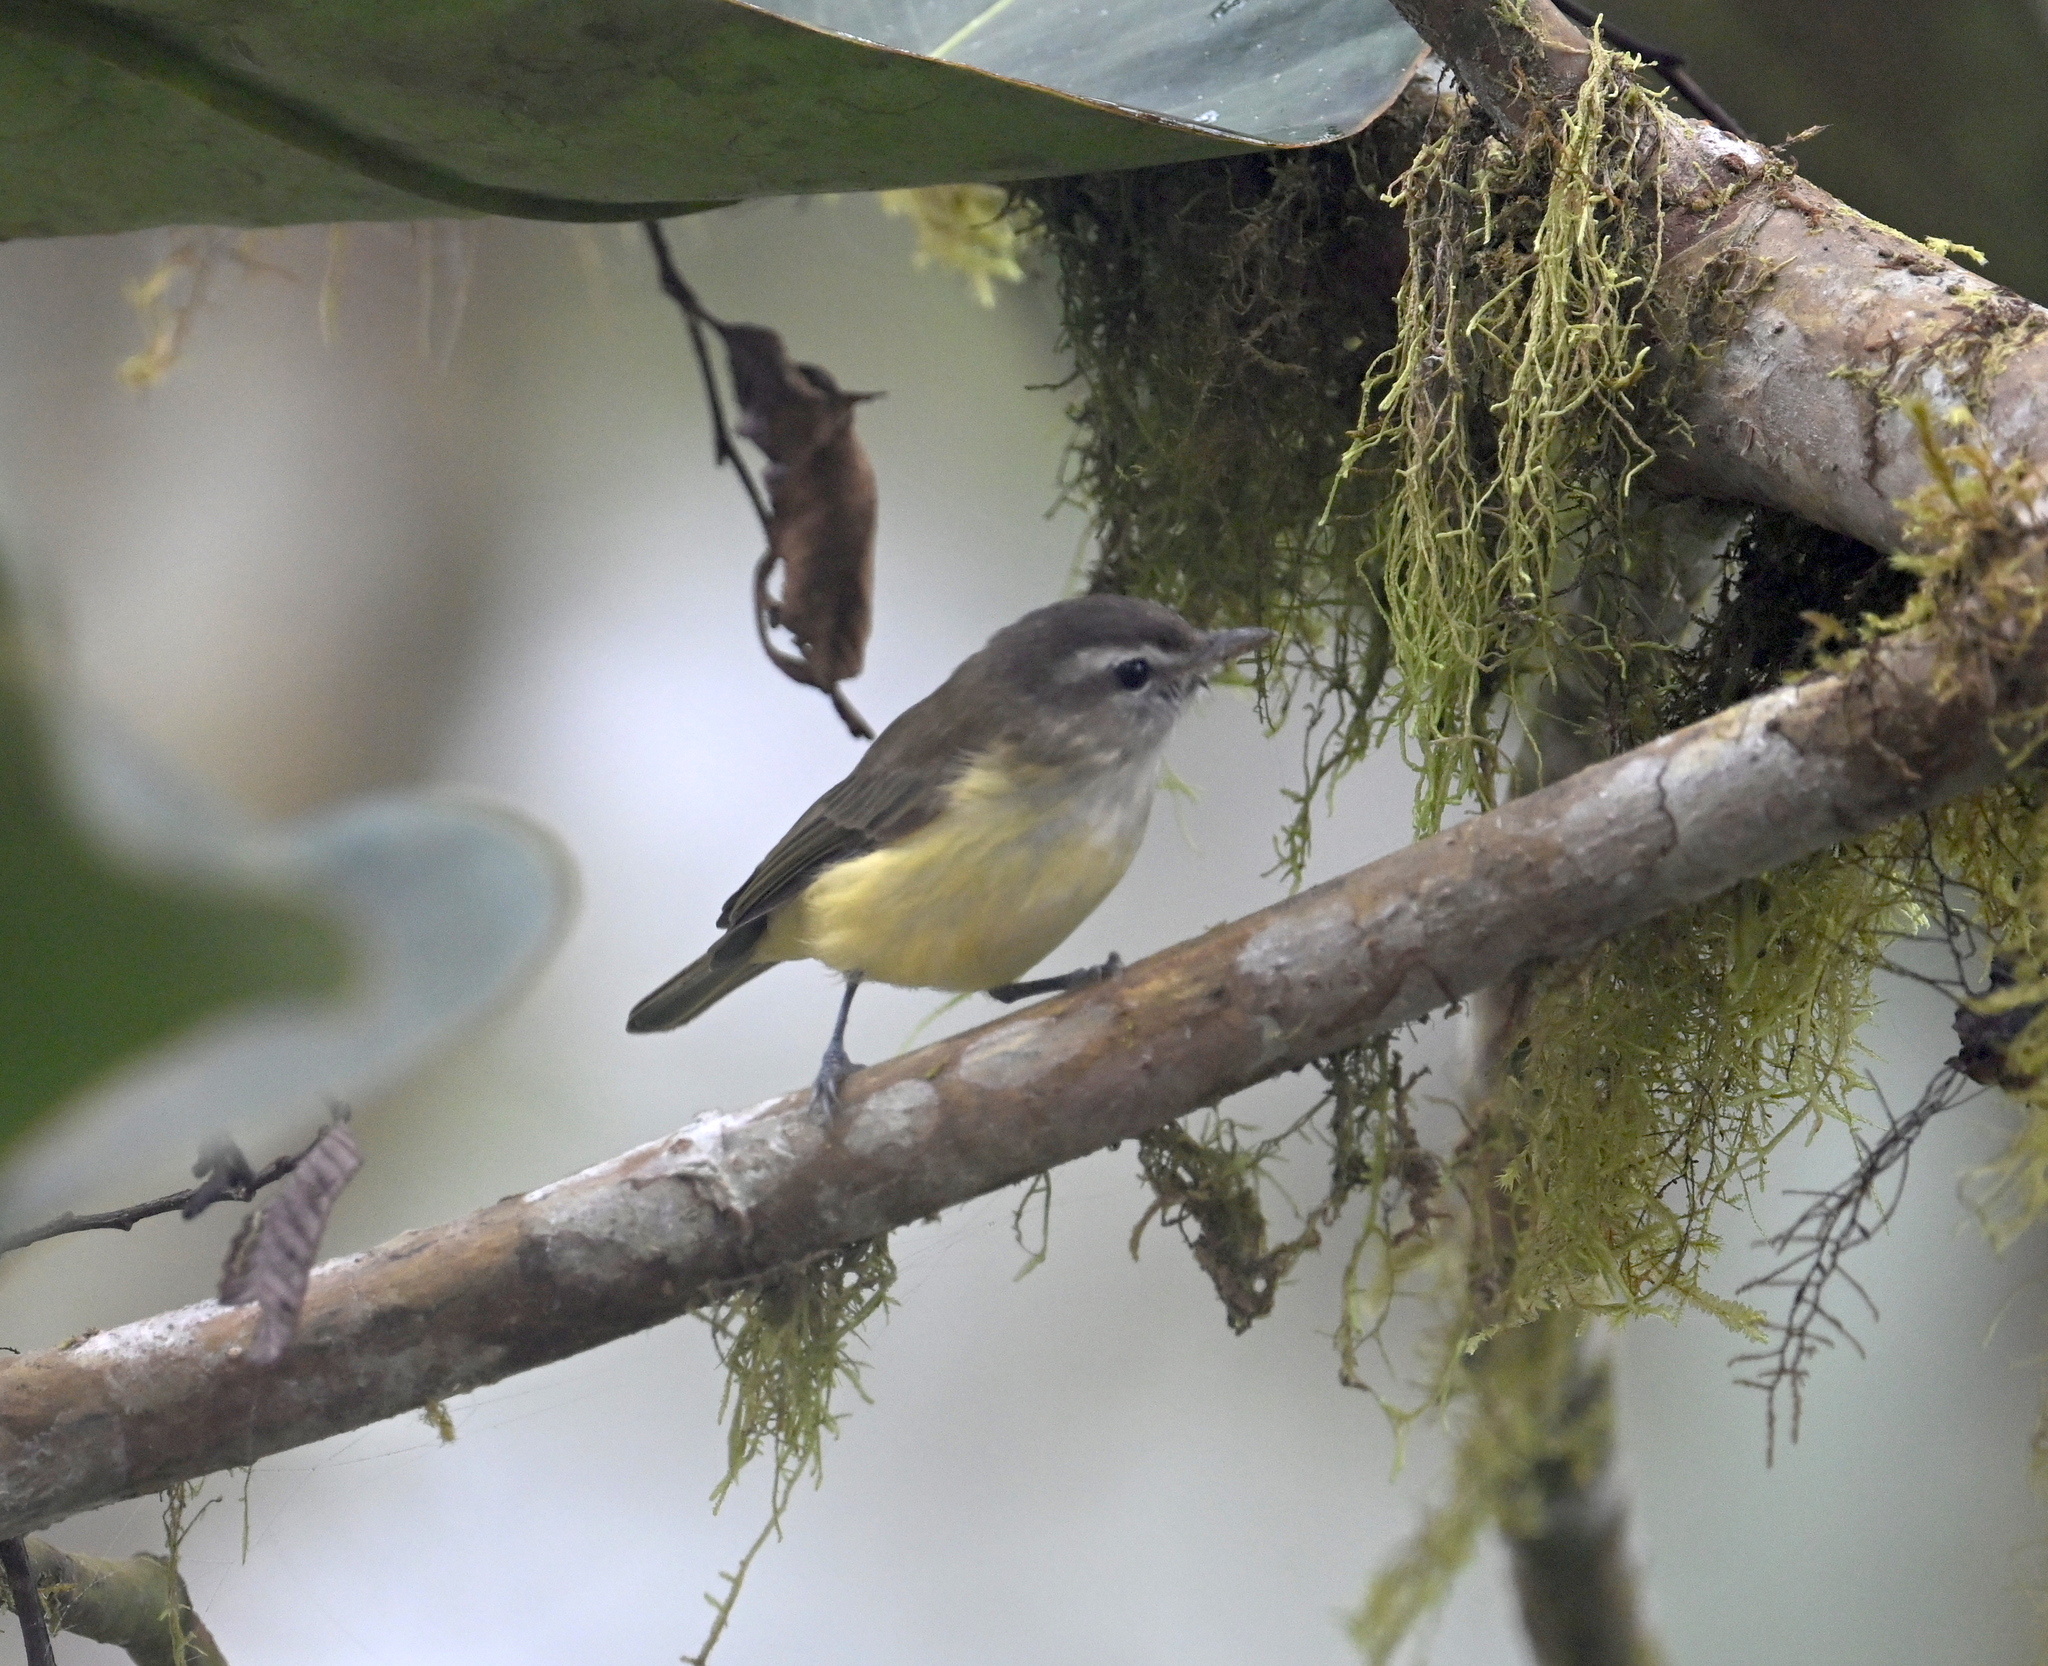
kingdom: Animalia
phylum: Chordata
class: Aves
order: Passeriformes
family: Vireonidae
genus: Vireo
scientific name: Vireo leucophrys
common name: Brown-capped vireo
